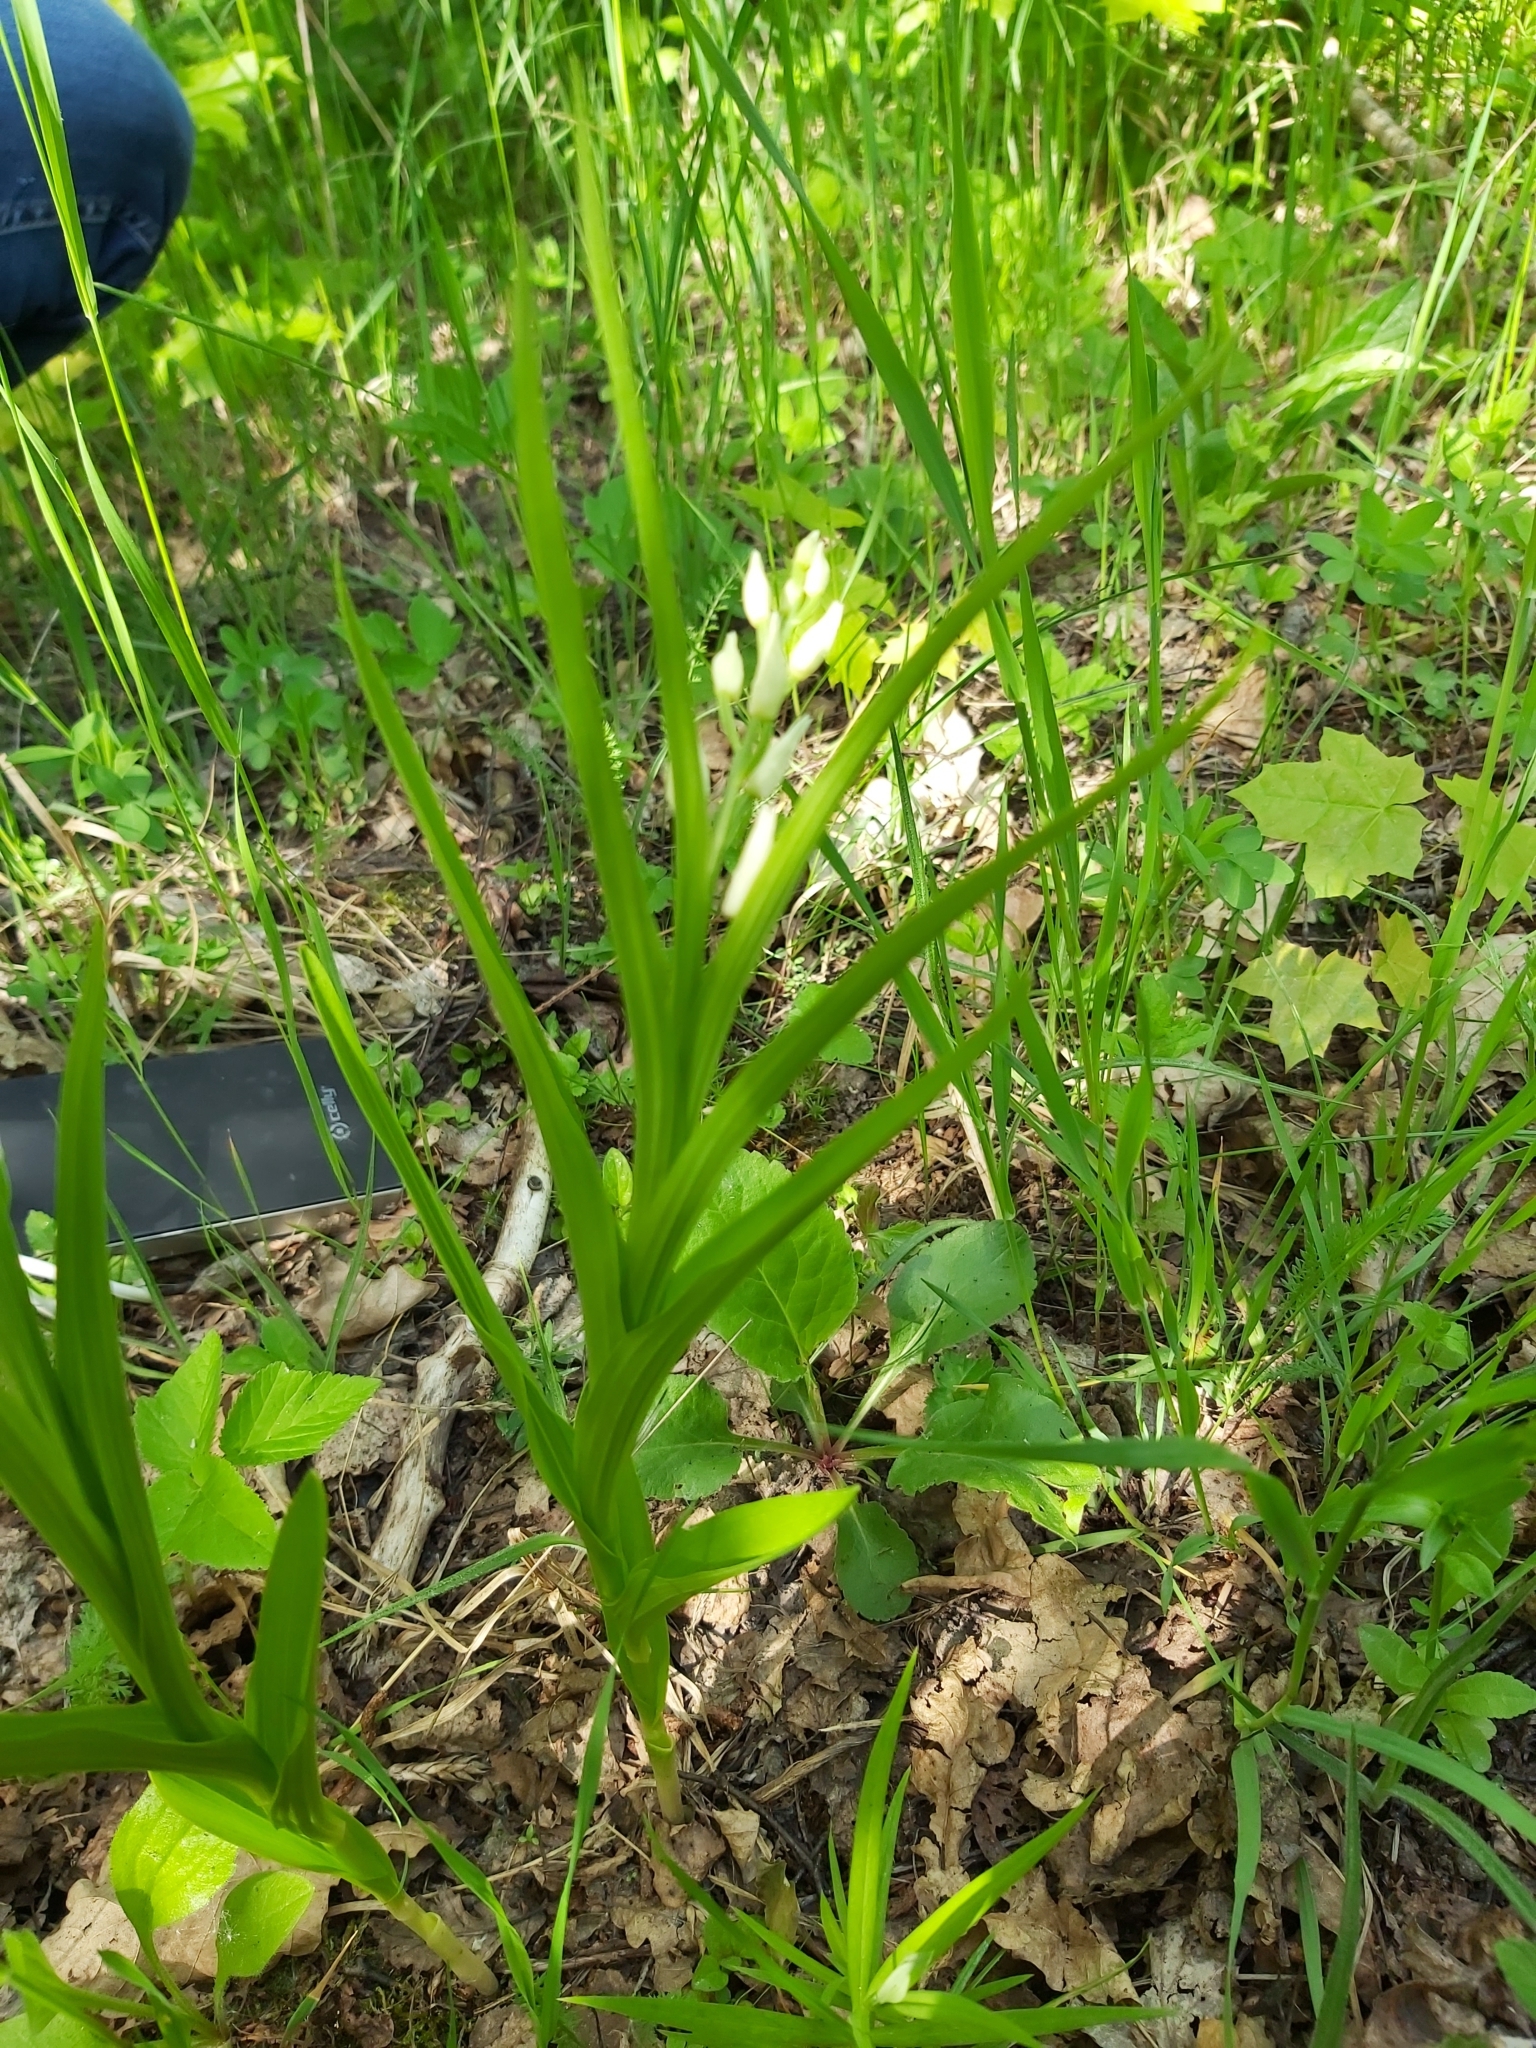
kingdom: Plantae
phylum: Tracheophyta
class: Liliopsida
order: Asparagales
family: Orchidaceae
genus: Cephalanthera
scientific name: Cephalanthera longifolia
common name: Narrow-leaved helleborine
